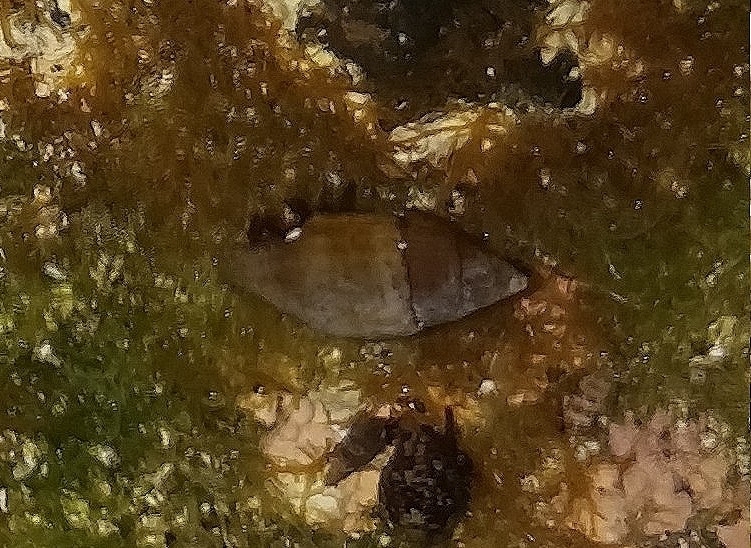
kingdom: Animalia
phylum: Mollusca
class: Gastropoda
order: Neogastropoda
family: Mitridae
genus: Isara
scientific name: Isara cornea
